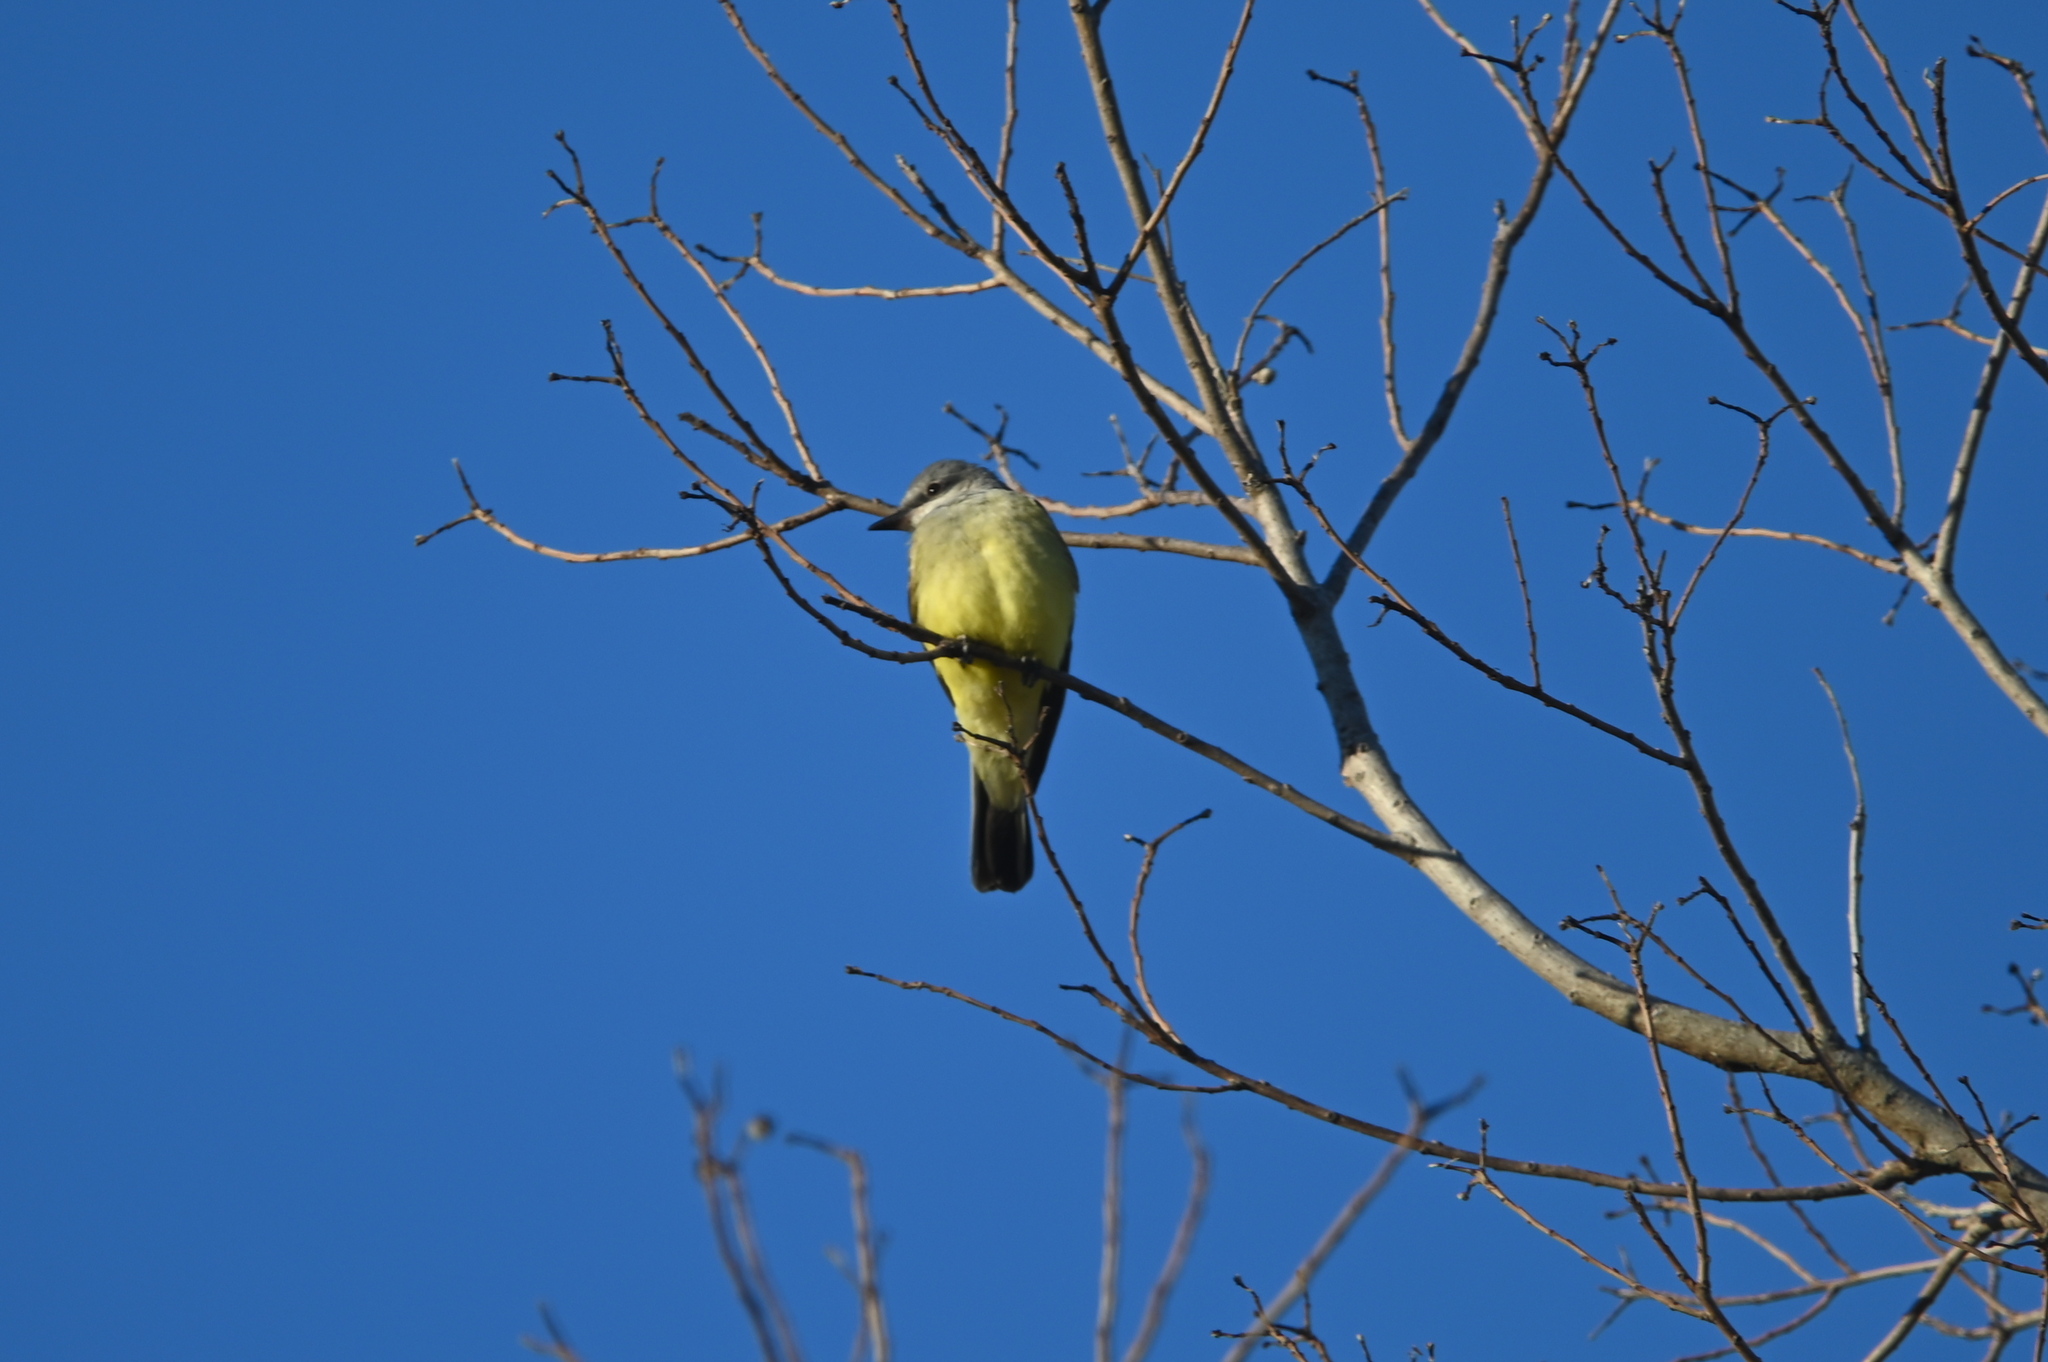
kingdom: Animalia
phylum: Chordata
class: Aves
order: Passeriformes
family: Tyrannidae
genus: Tyrannus
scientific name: Tyrannus verticalis
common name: Western kingbird
